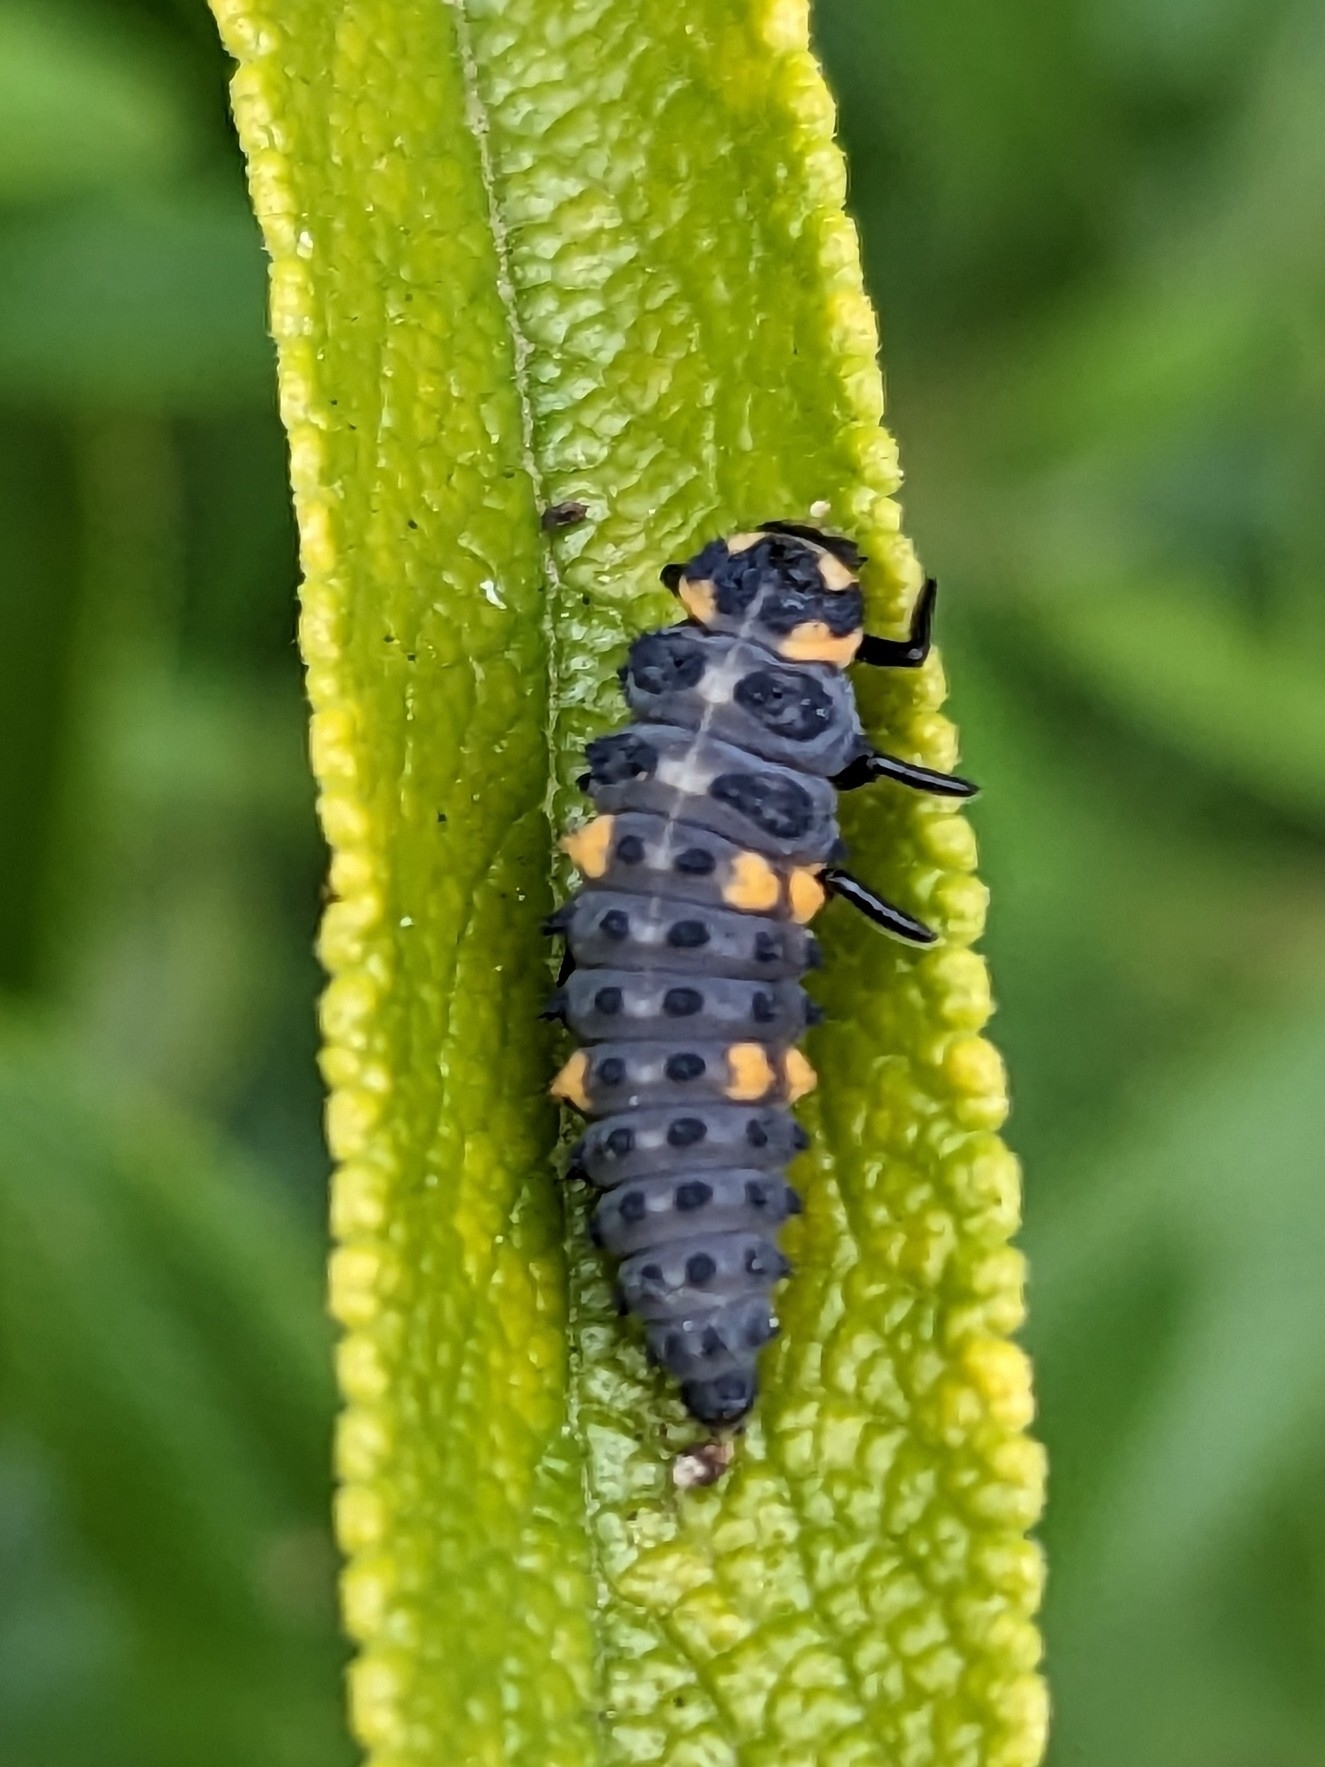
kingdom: Animalia
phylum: Arthropoda
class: Insecta
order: Coleoptera
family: Coccinellidae
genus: Coccinella
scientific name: Coccinella septempunctata
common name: Sevenspotted lady beetle
